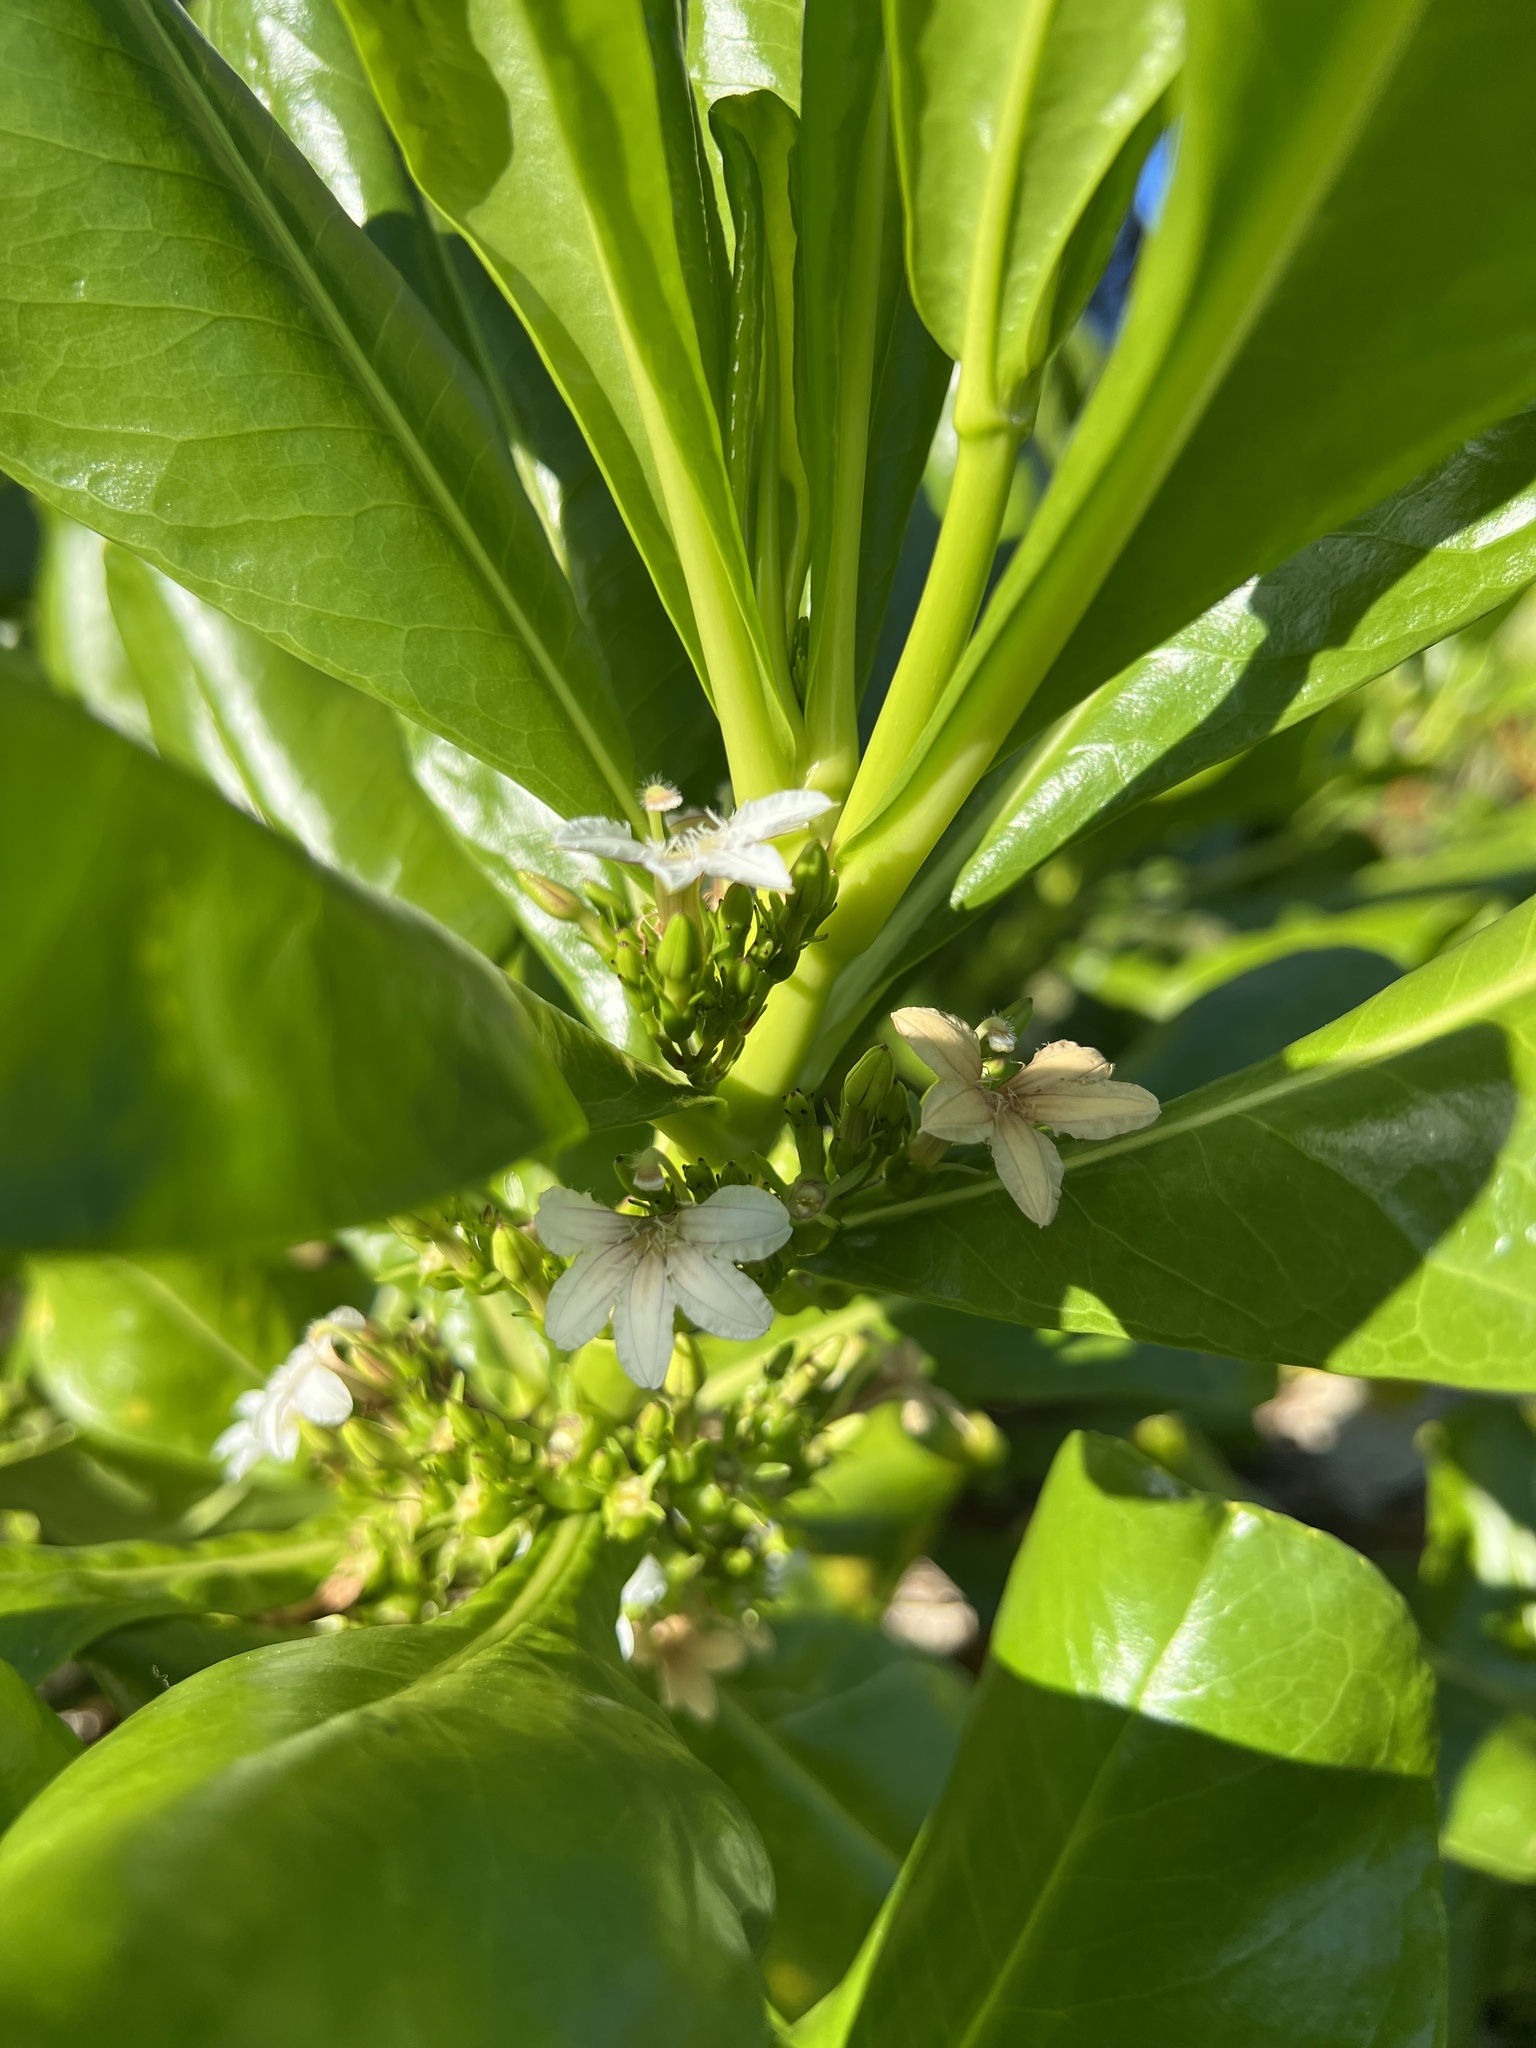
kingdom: Plantae
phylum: Tracheophyta
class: Magnoliopsida
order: Asterales
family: Goodeniaceae
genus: Scaevola
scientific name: Scaevola taccada
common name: Sea lettucetree
